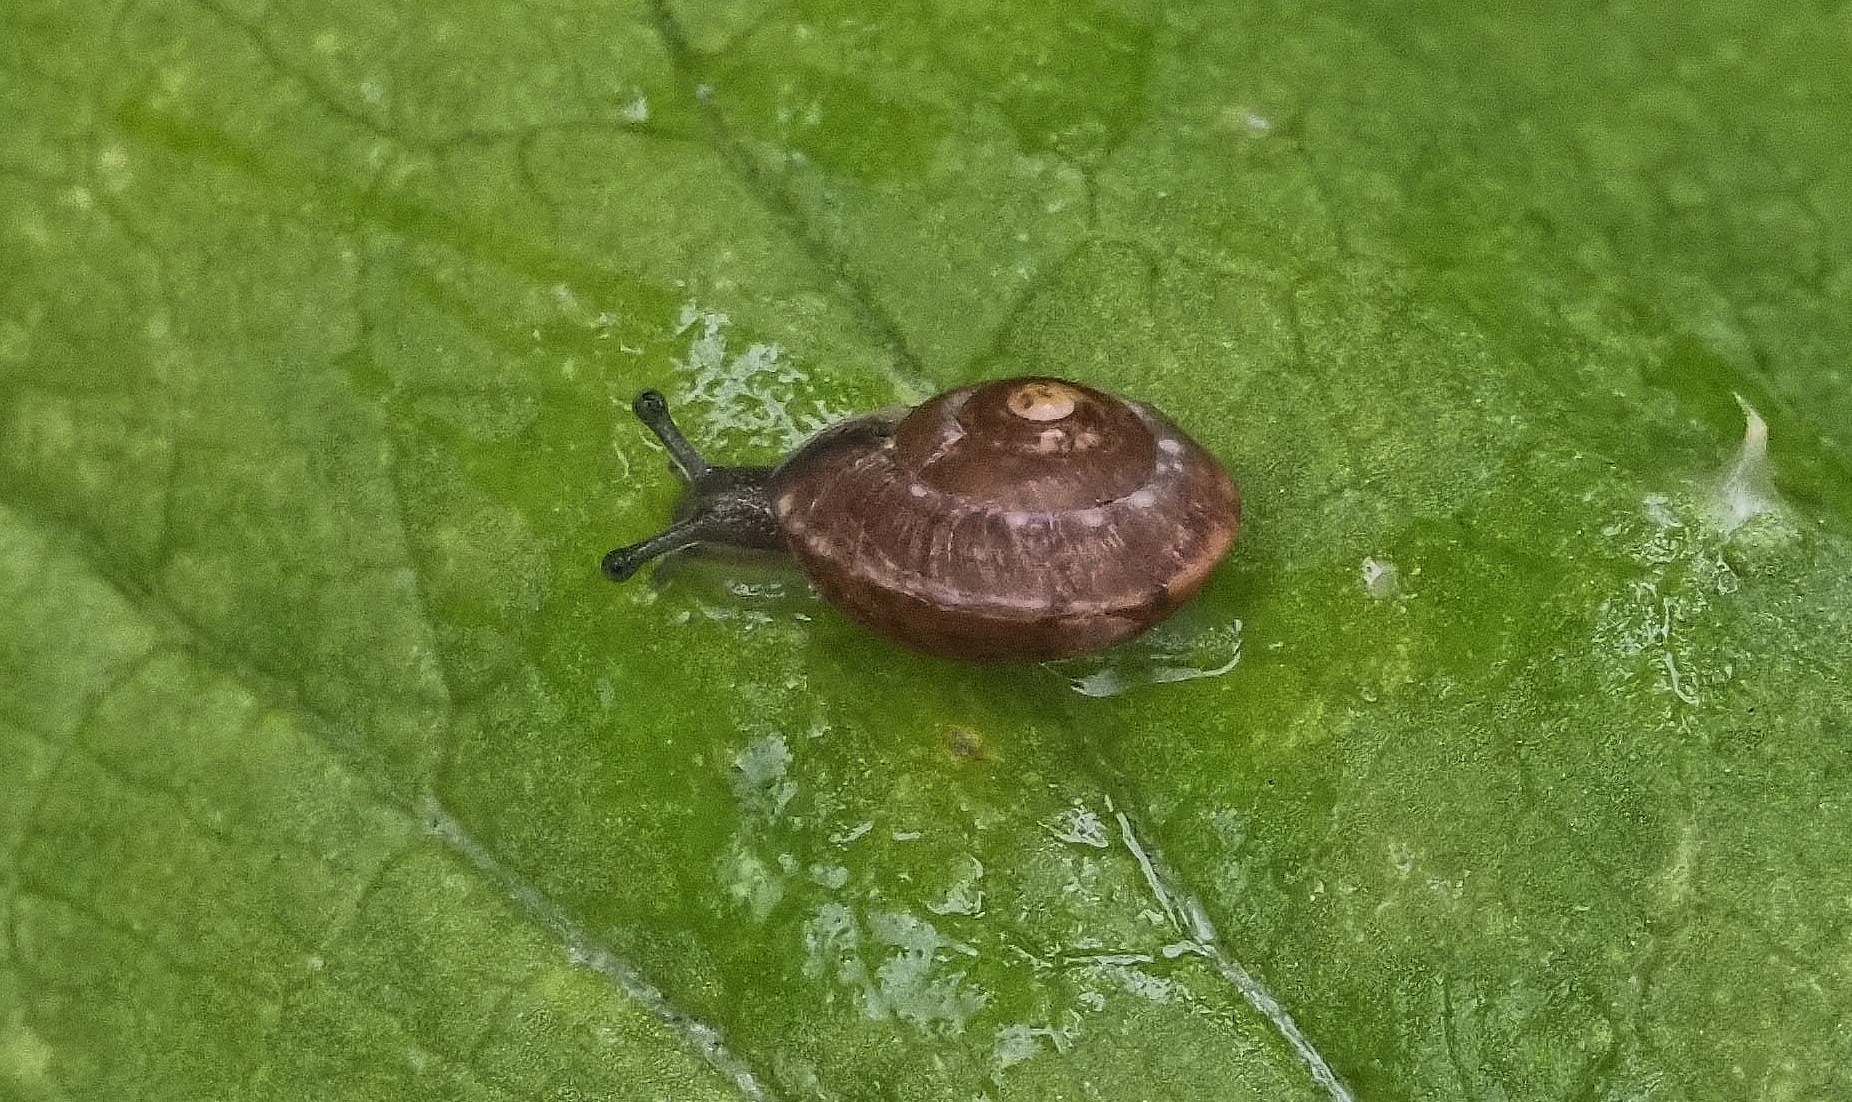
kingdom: Animalia
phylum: Mollusca
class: Gastropoda
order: Stylommatophora
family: Hygromiidae
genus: Hygromia
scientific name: Hygromia cinctella
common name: Girdled snail
